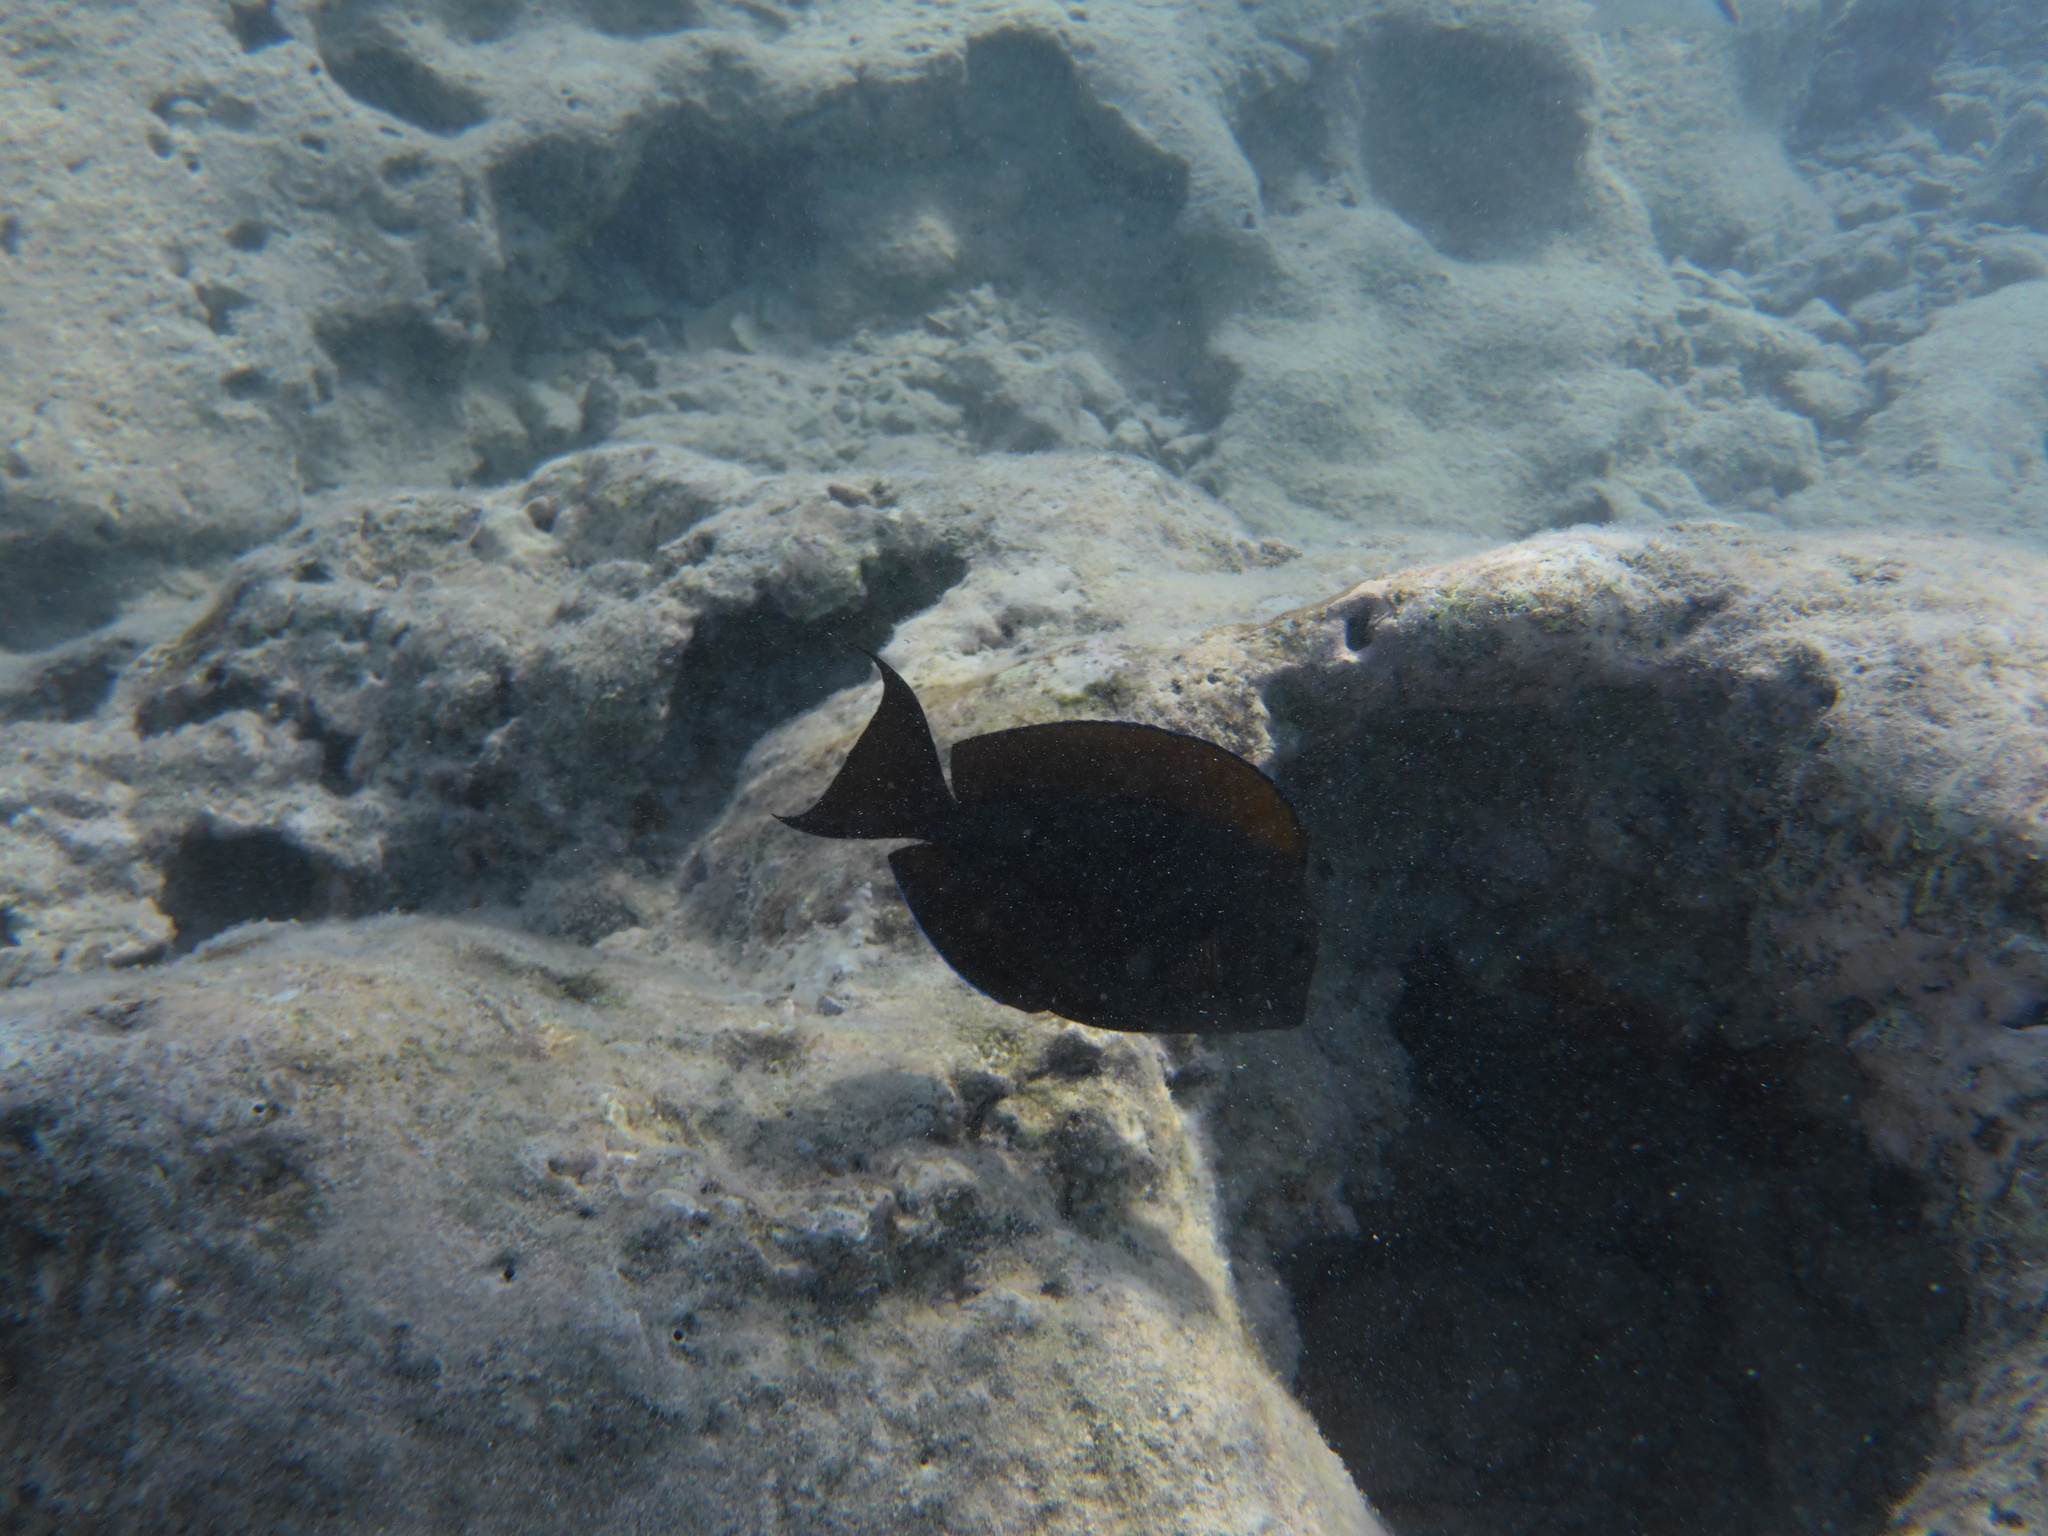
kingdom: Animalia
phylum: Chordata
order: Perciformes
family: Acanthuridae
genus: Acanthurus
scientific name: Acanthurus nigrofuscus
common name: Blackspot surgeonfish
